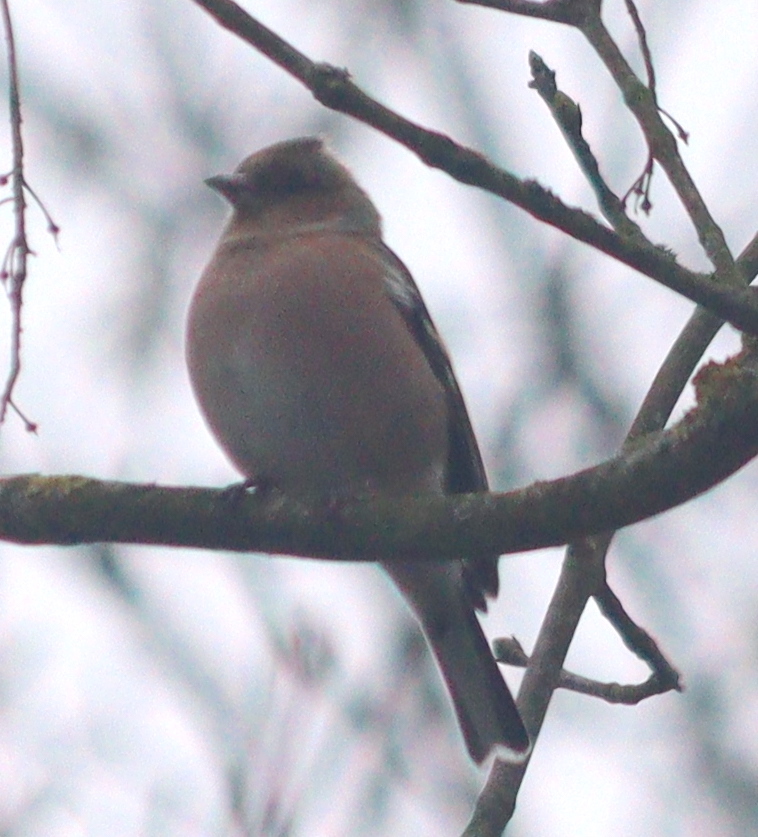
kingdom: Animalia
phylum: Chordata
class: Aves
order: Passeriformes
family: Fringillidae
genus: Fringilla
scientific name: Fringilla coelebs
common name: Common chaffinch
